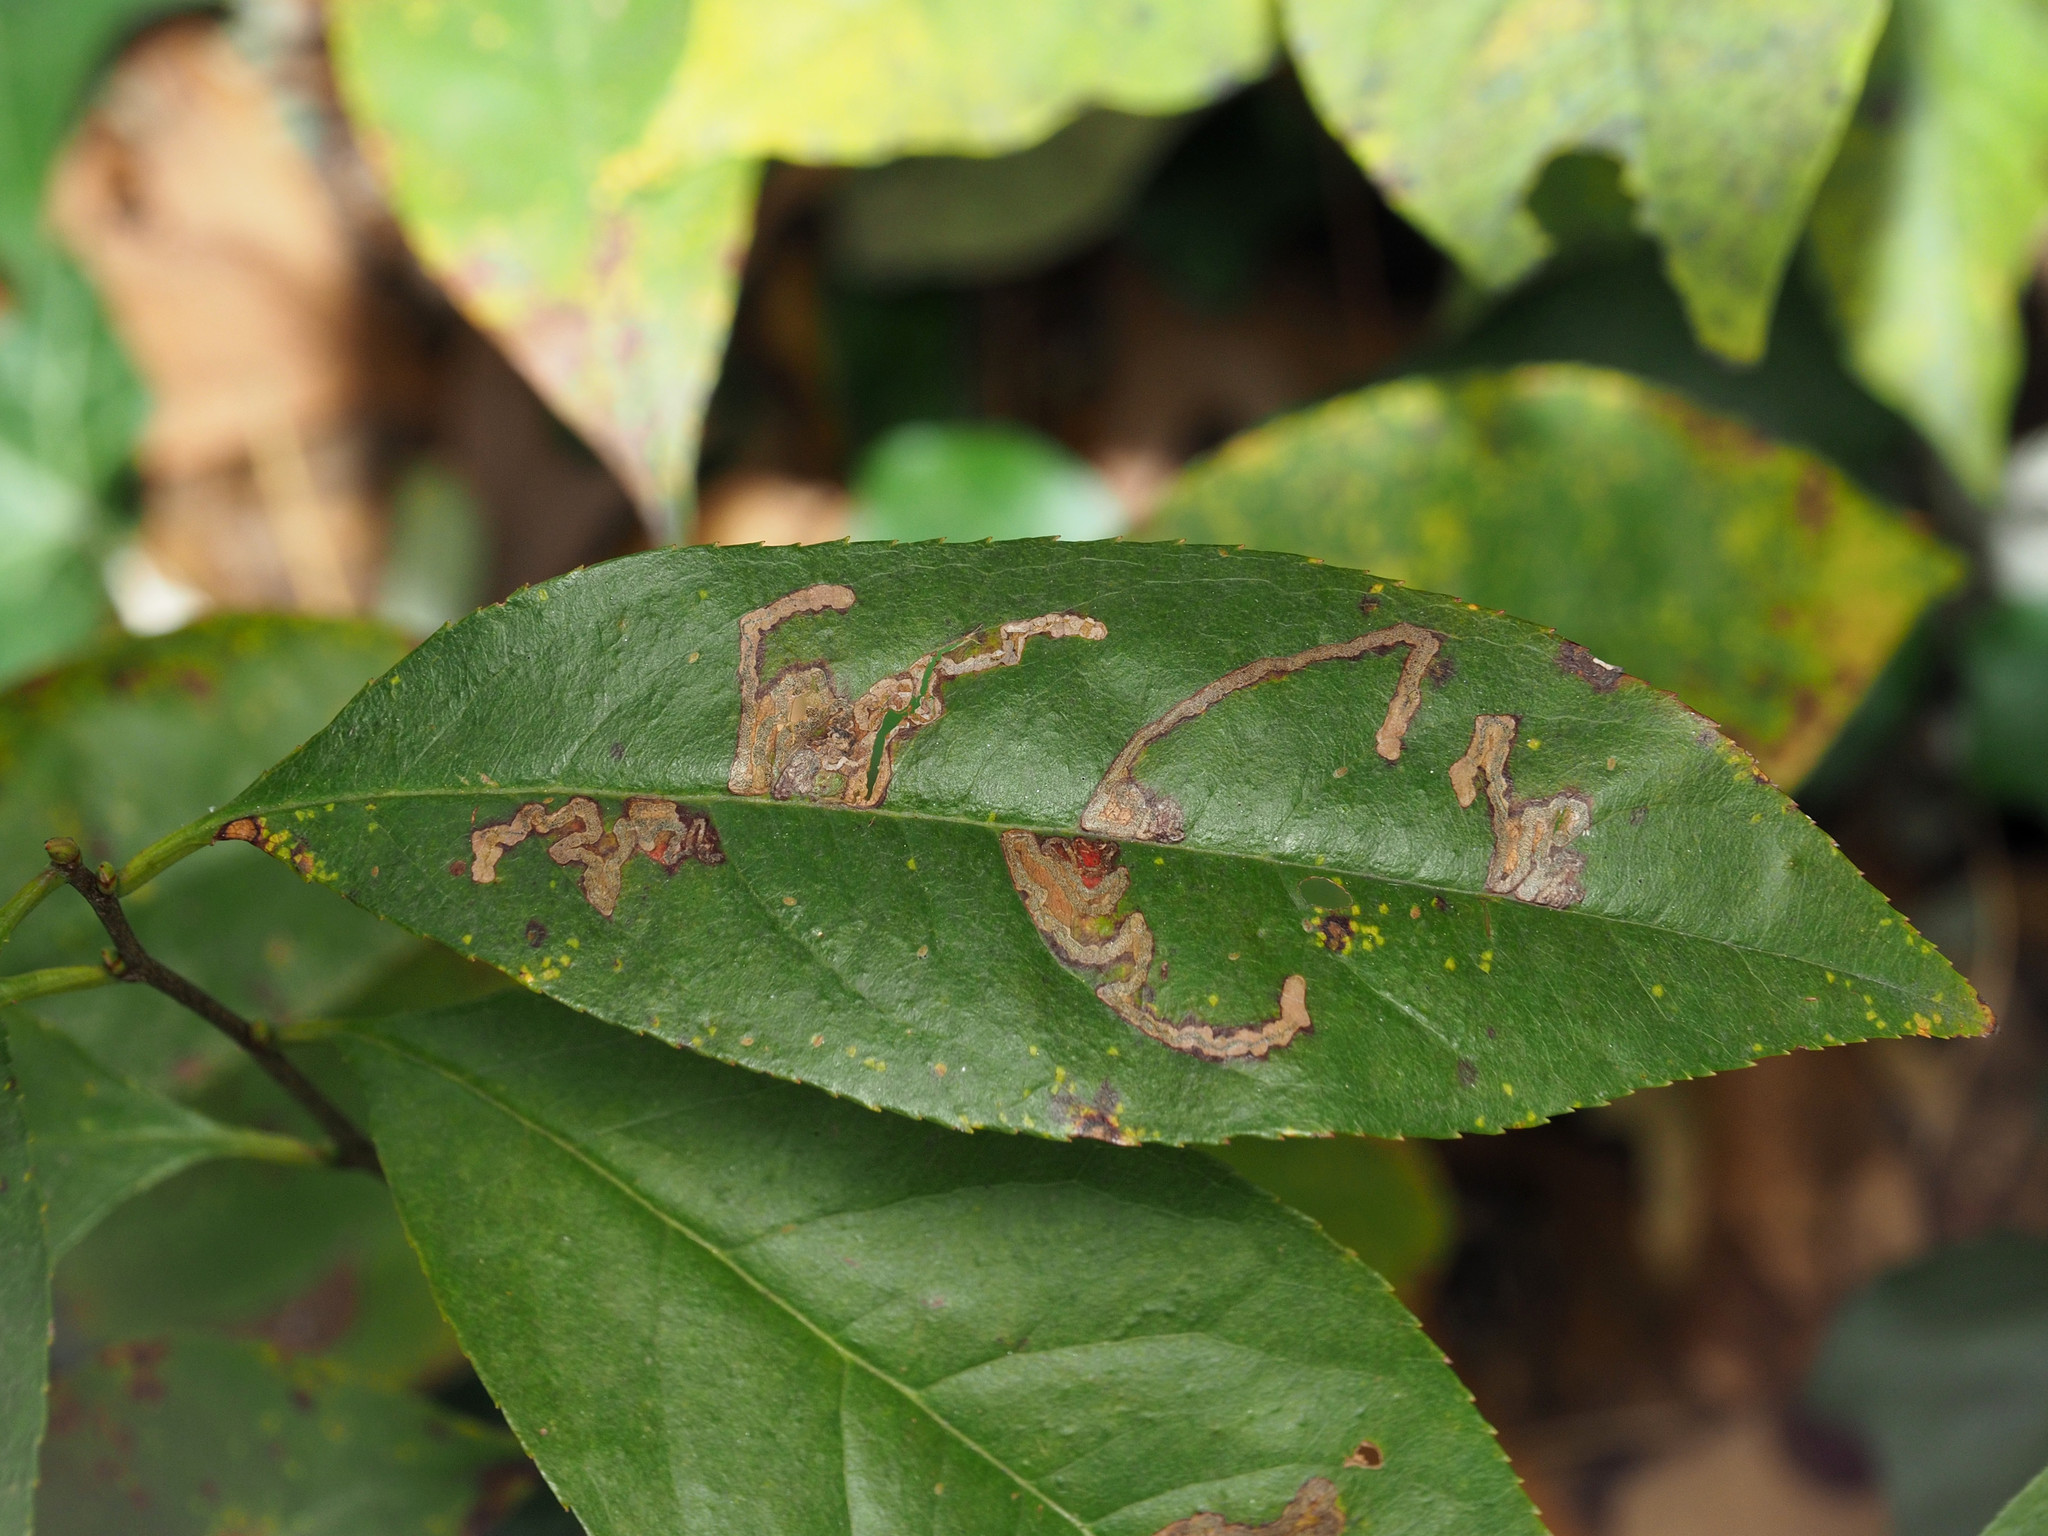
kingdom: Animalia
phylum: Arthropoda
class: Insecta
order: Lepidoptera
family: Nepticulidae
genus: Stigmella
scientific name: Stigmella prunifoliella
